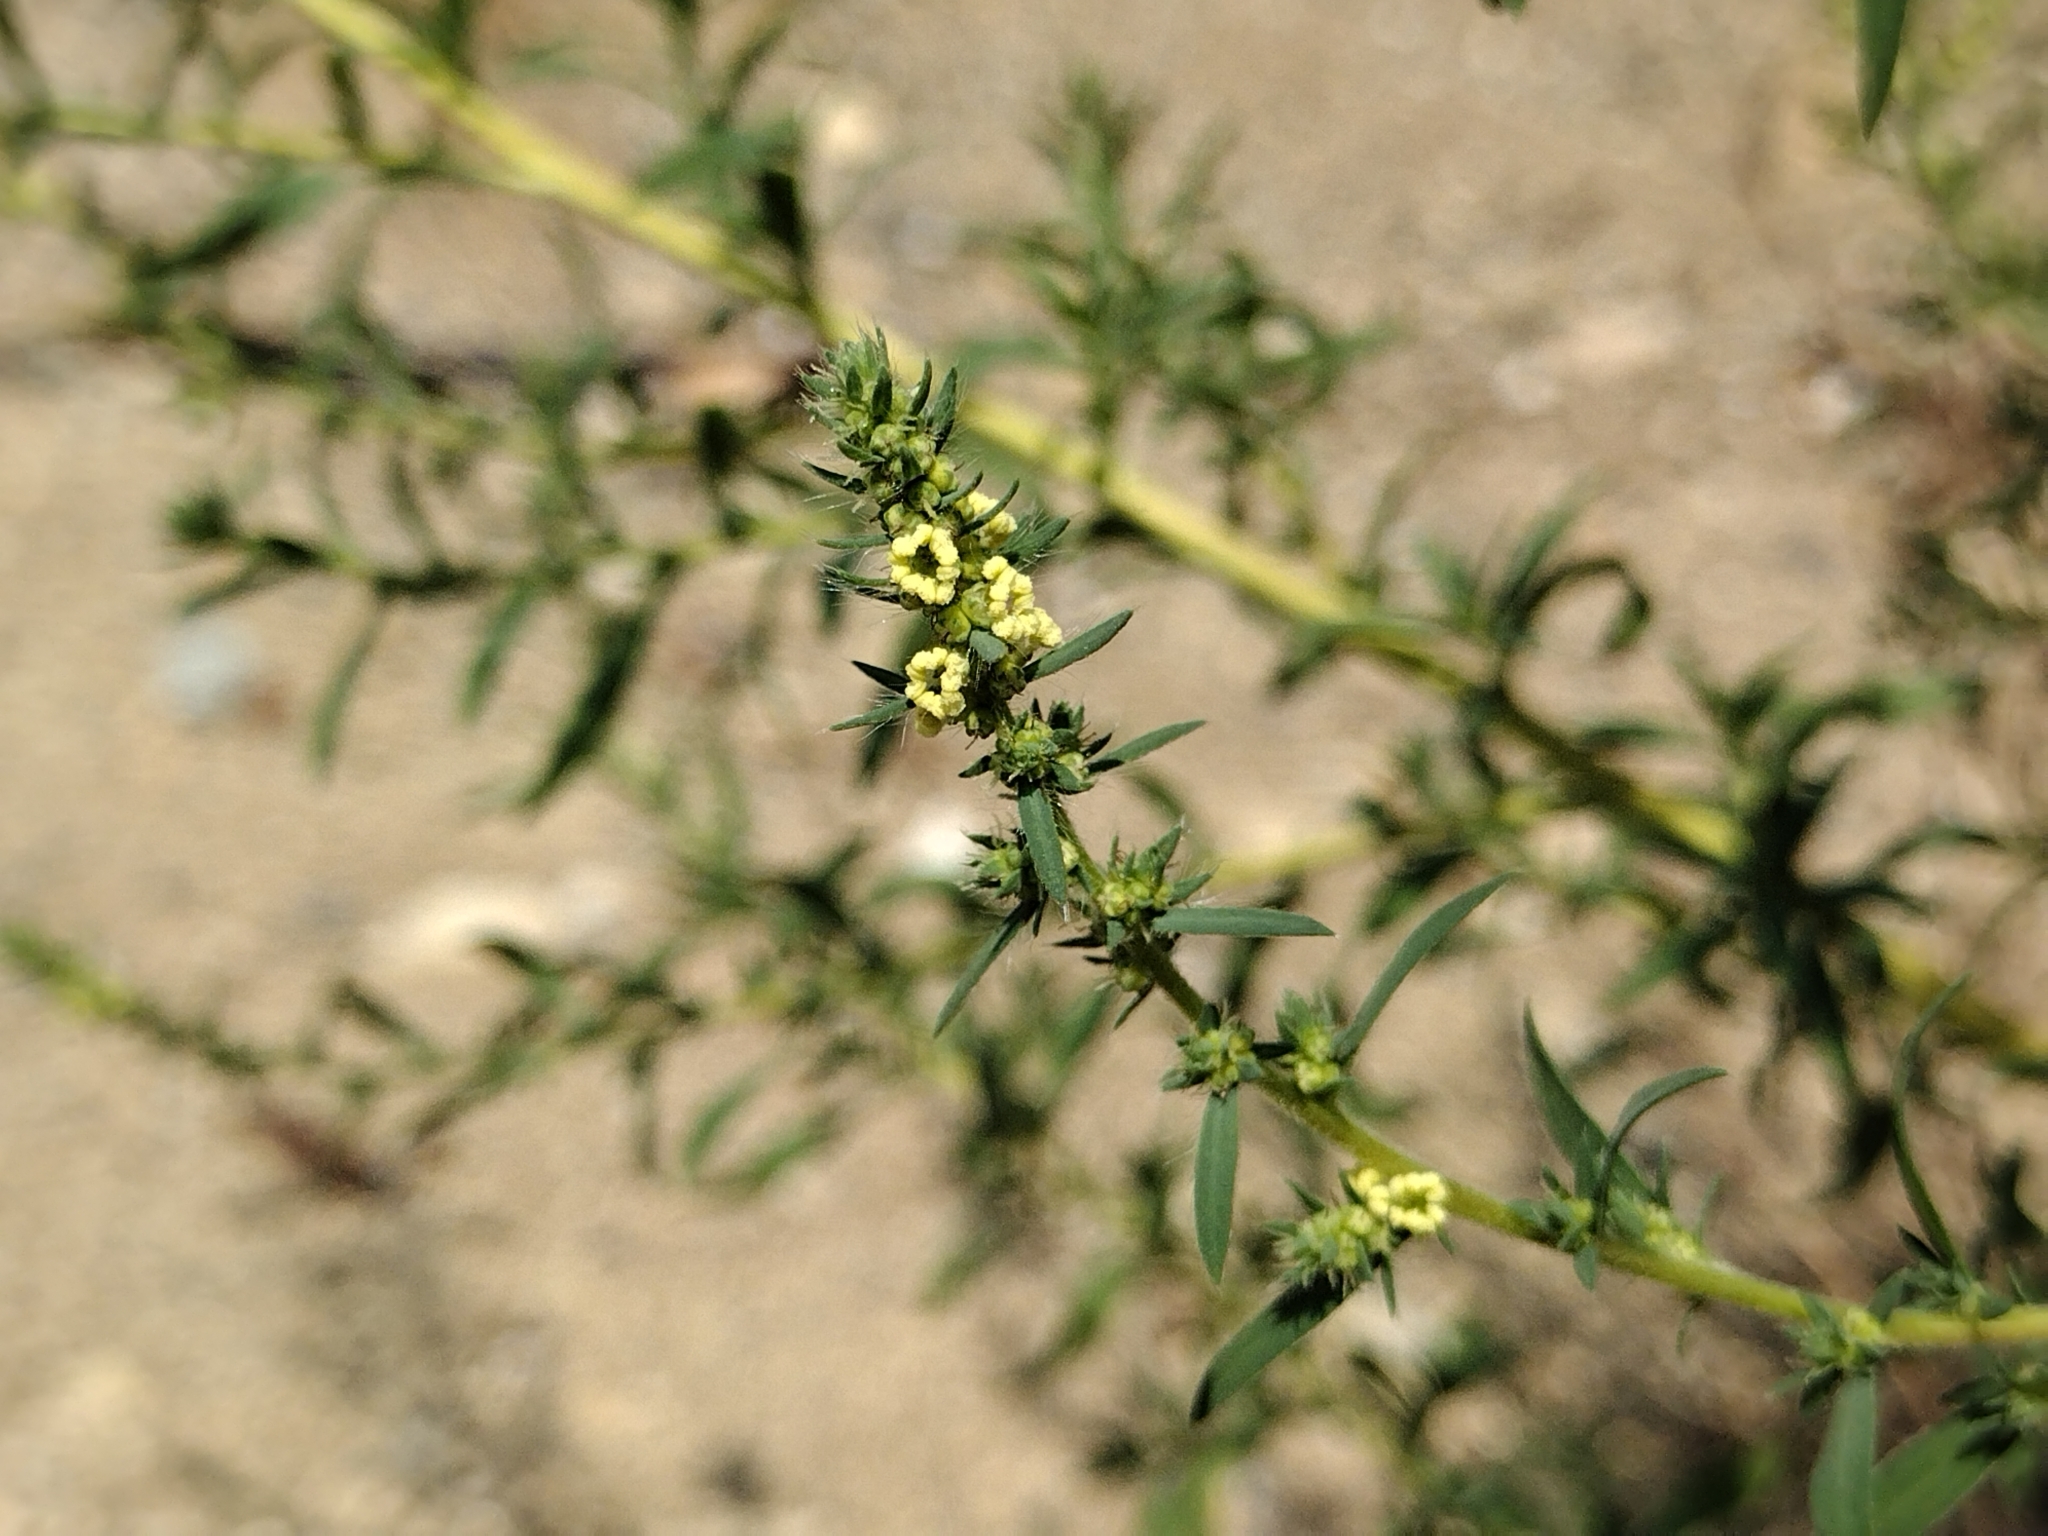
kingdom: Plantae
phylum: Tracheophyta
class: Magnoliopsida
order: Caryophyllales
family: Amaranthaceae
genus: Bassia
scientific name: Bassia scoparia
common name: Belvedere
